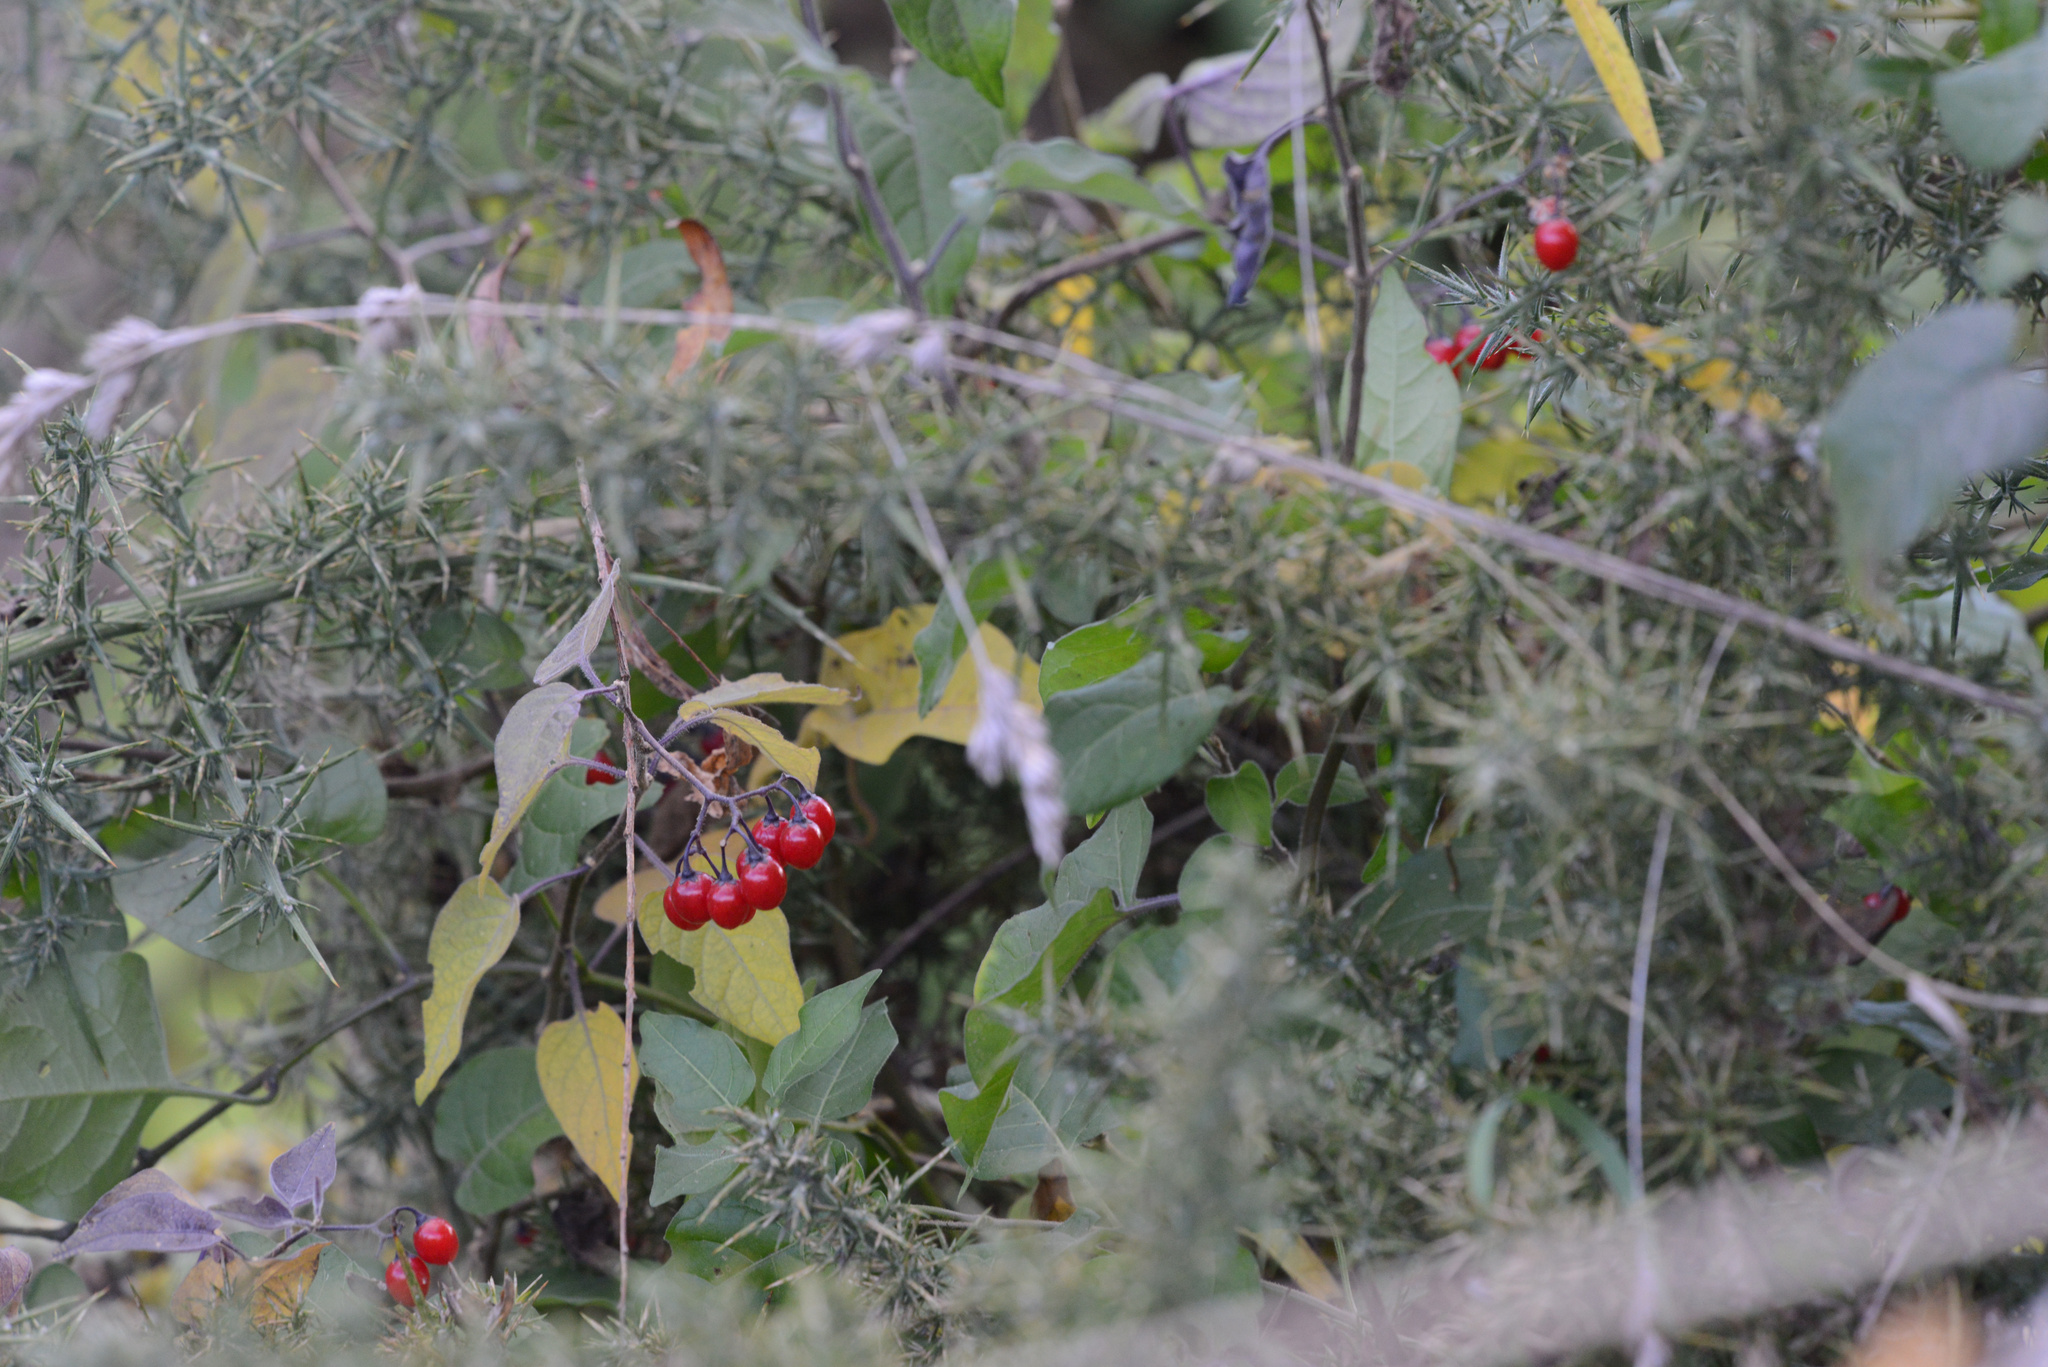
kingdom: Plantae
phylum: Tracheophyta
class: Magnoliopsida
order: Solanales
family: Solanaceae
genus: Solanum
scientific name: Solanum dulcamara
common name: Climbing nightshade
